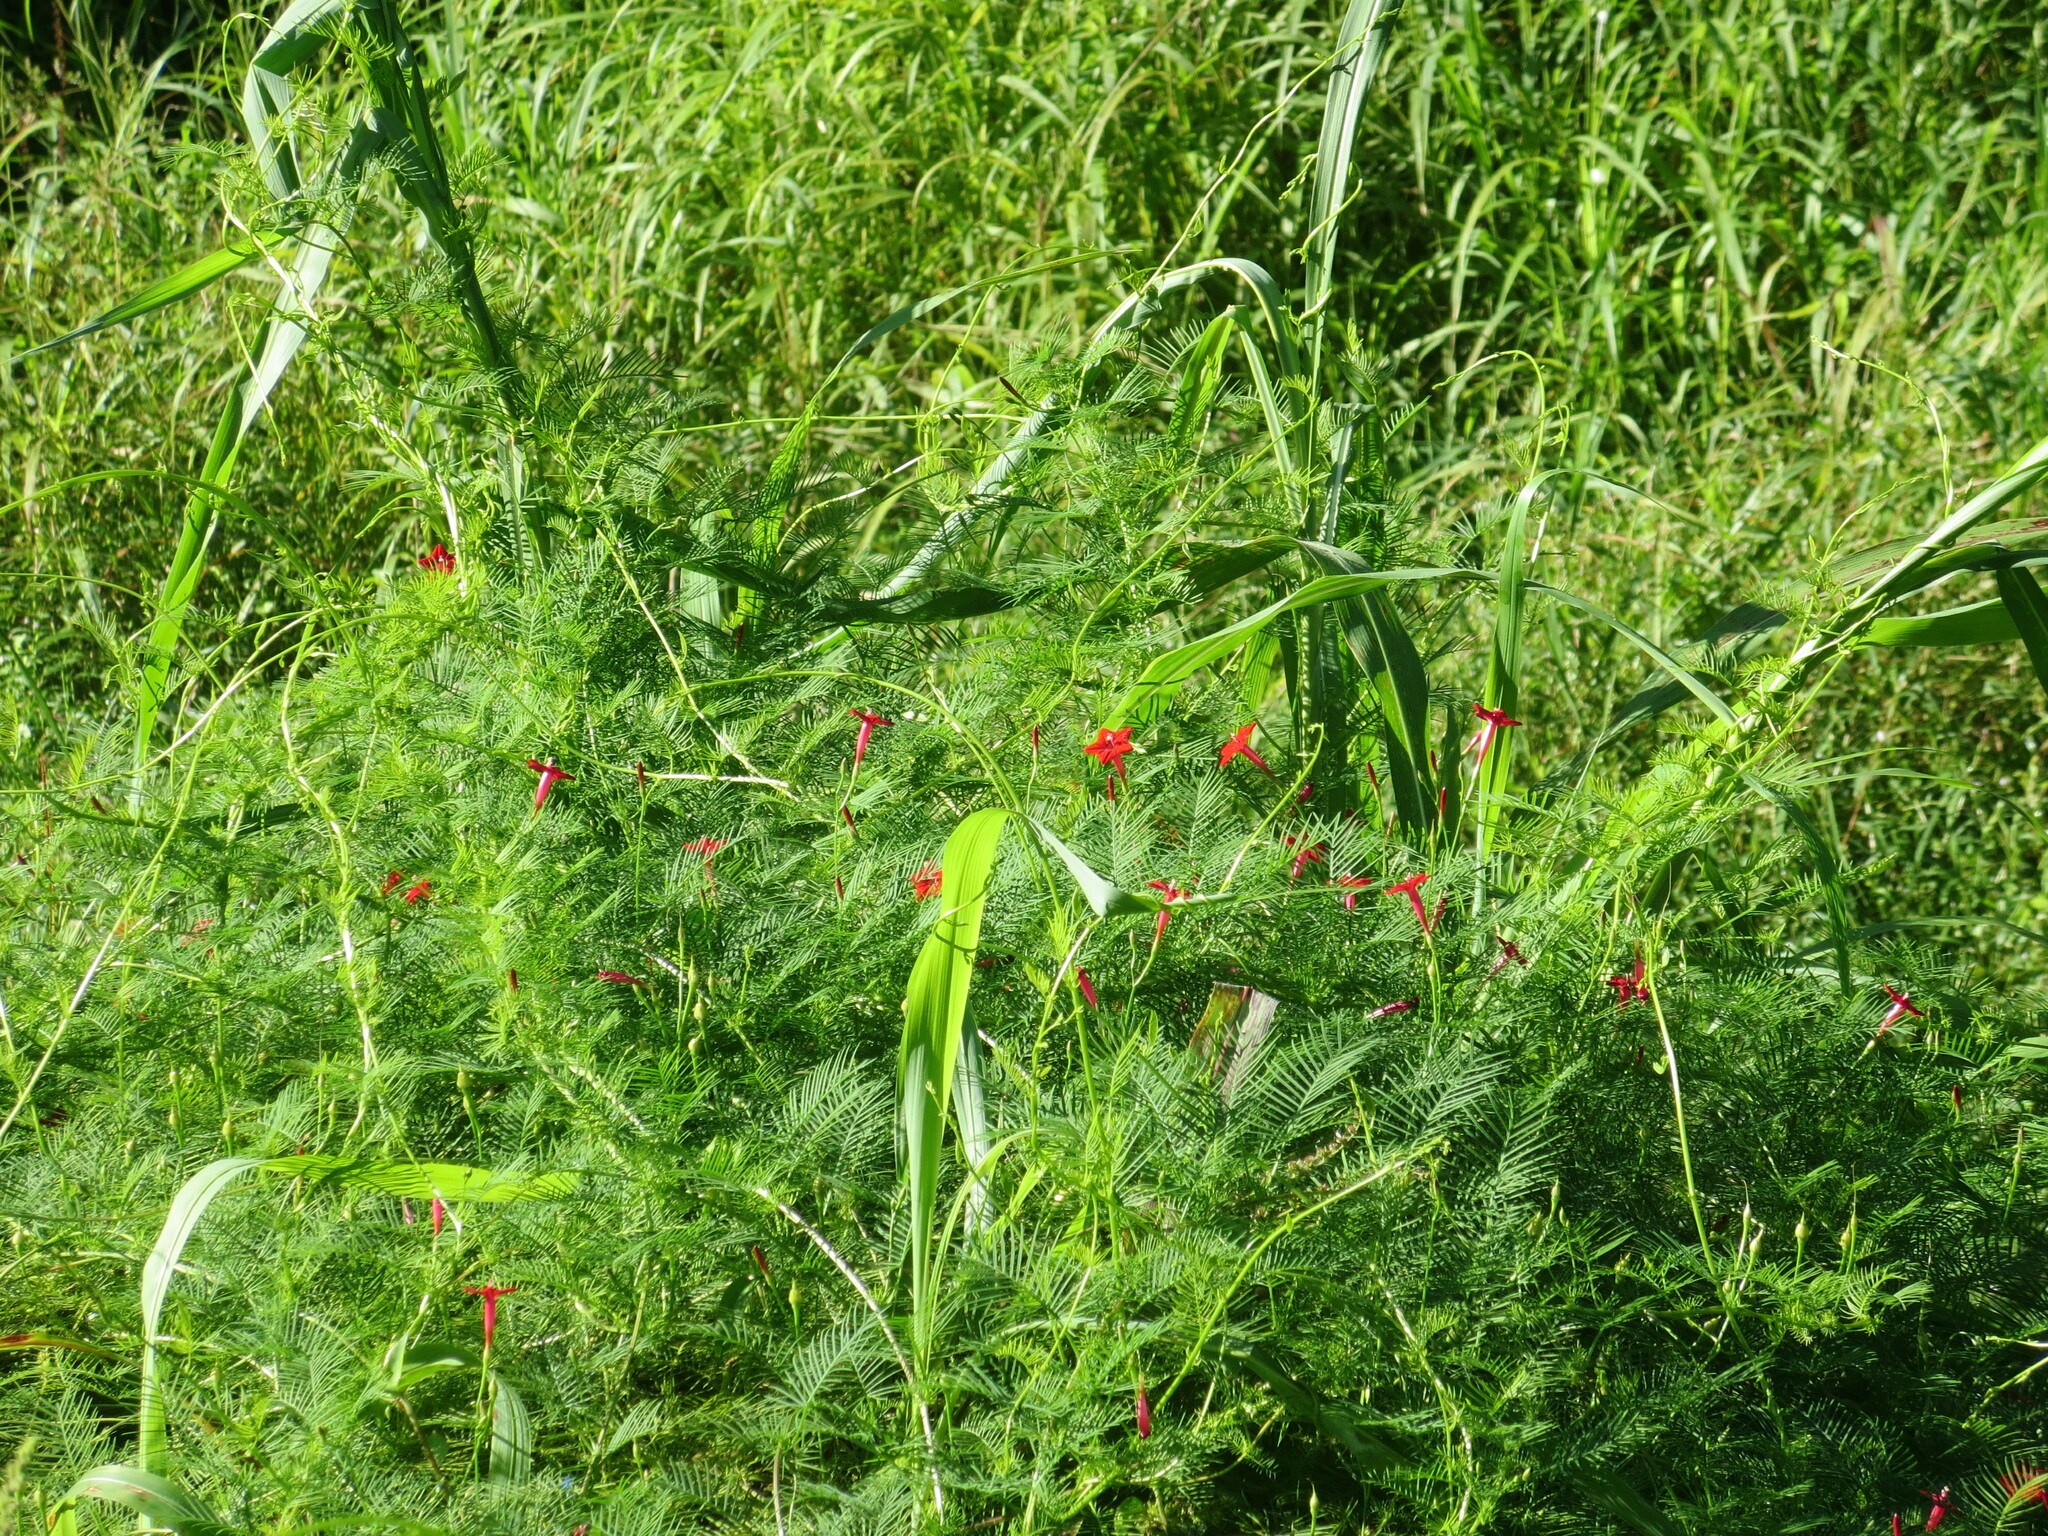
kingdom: Plantae
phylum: Tracheophyta
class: Magnoliopsida
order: Solanales
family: Convolvulaceae
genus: Ipomoea
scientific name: Ipomoea quamoclit
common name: Cypress vine
